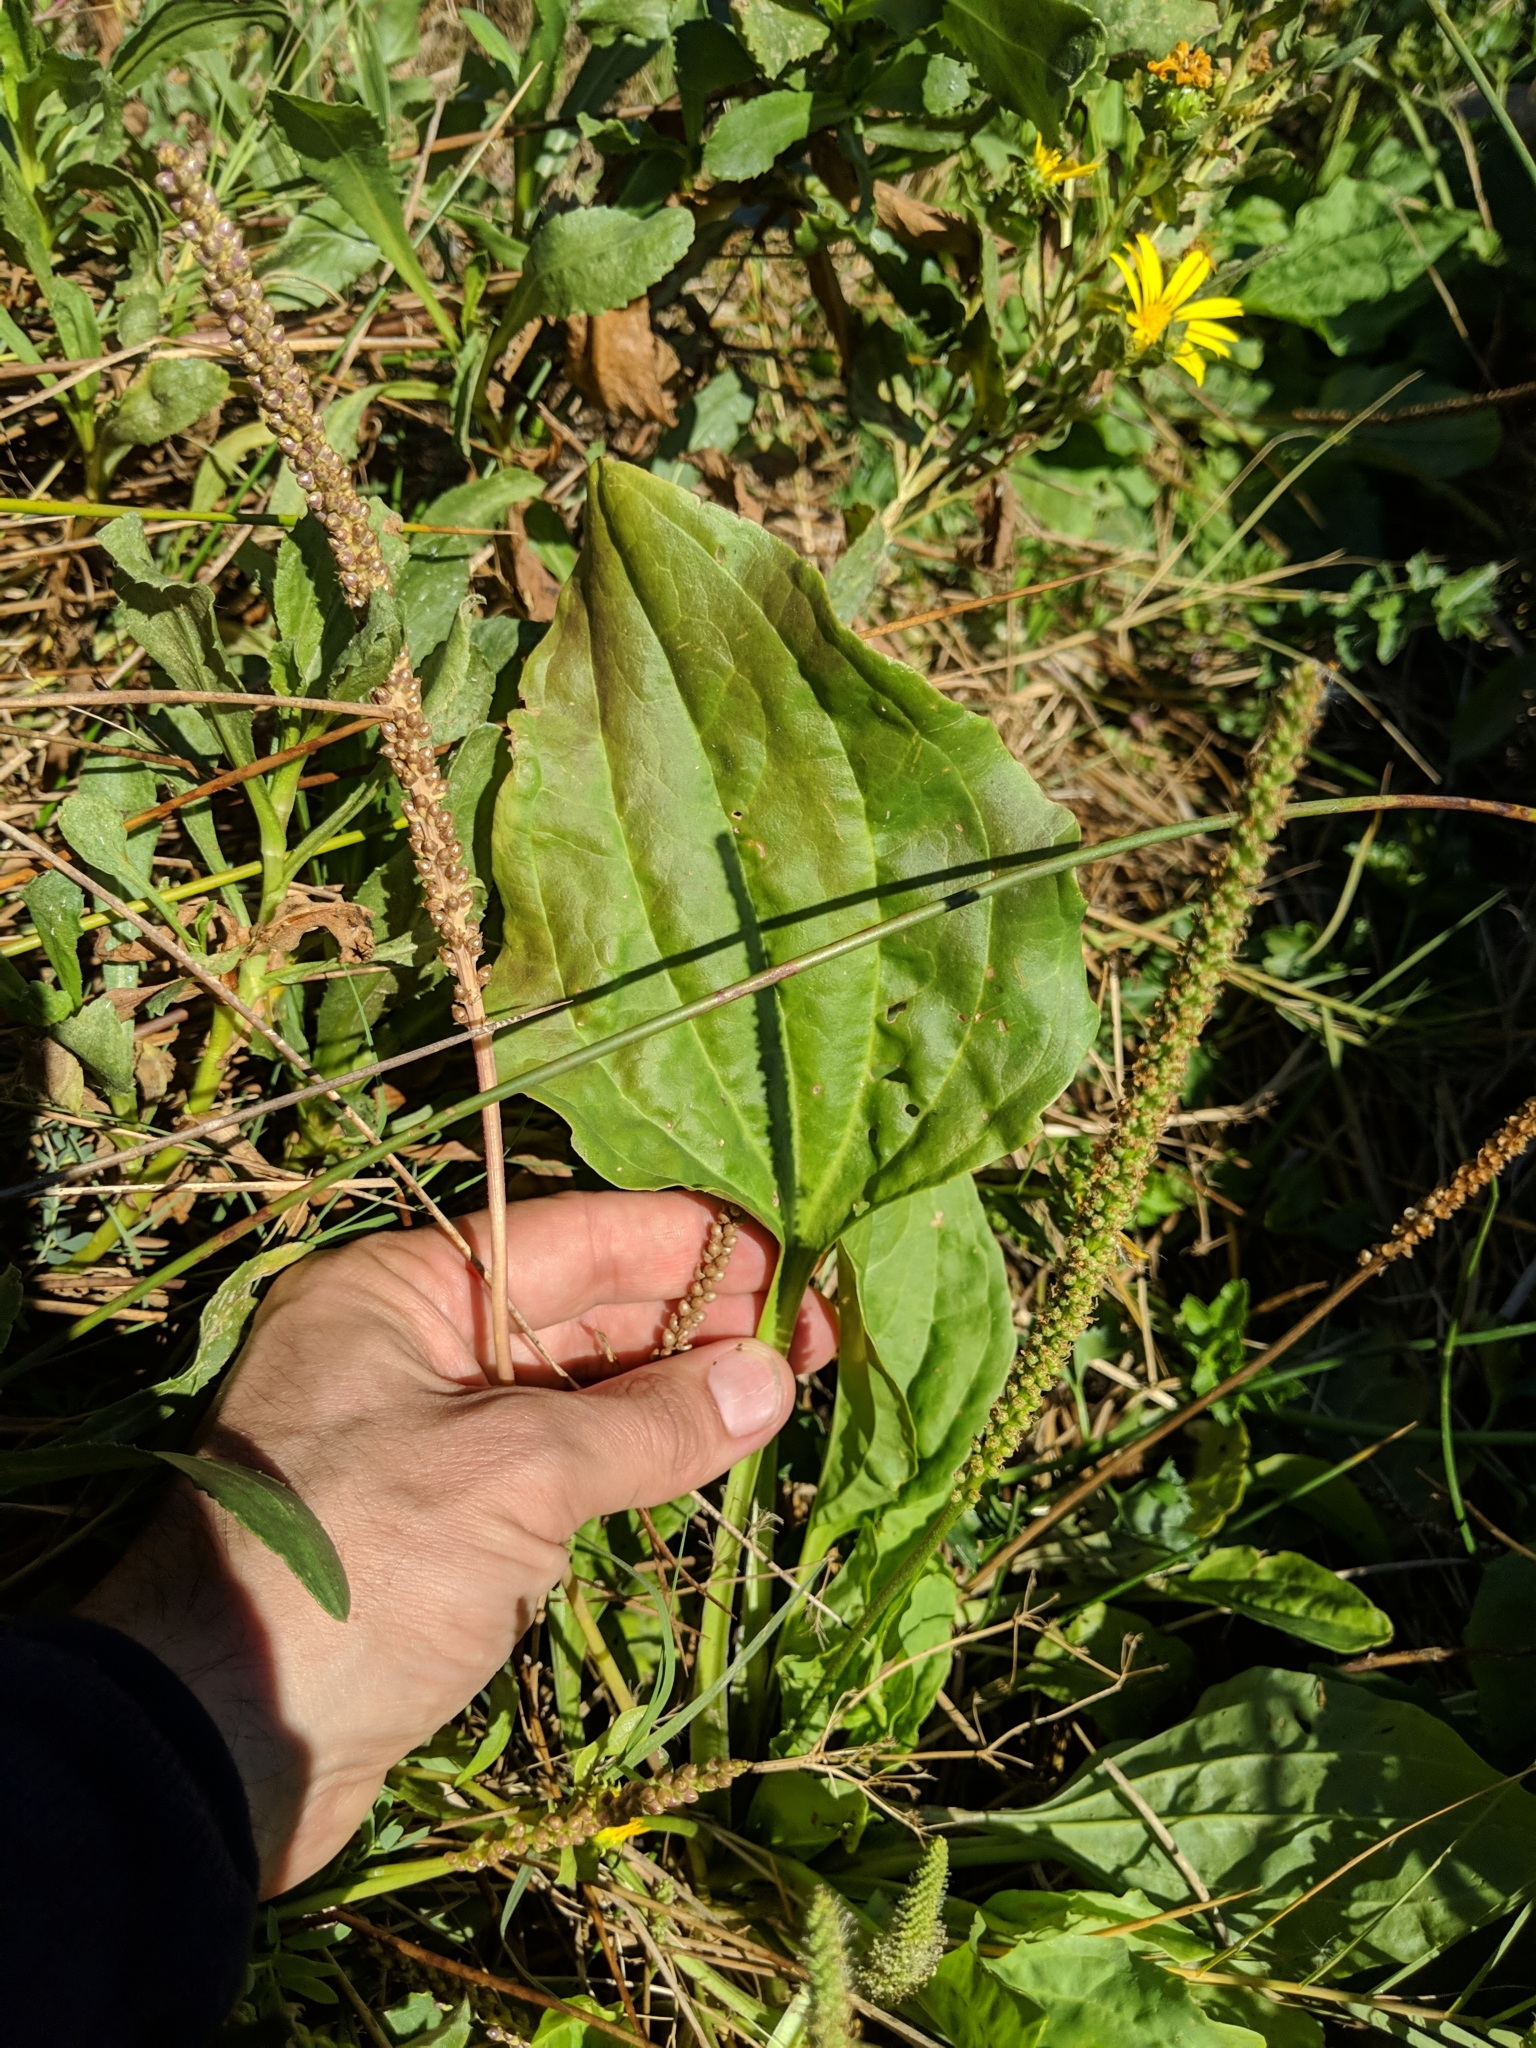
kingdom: Plantae
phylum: Tracheophyta
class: Magnoliopsida
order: Lamiales
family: Plantaginaceae
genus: Plantago
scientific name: Plantago major
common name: Common plantain
